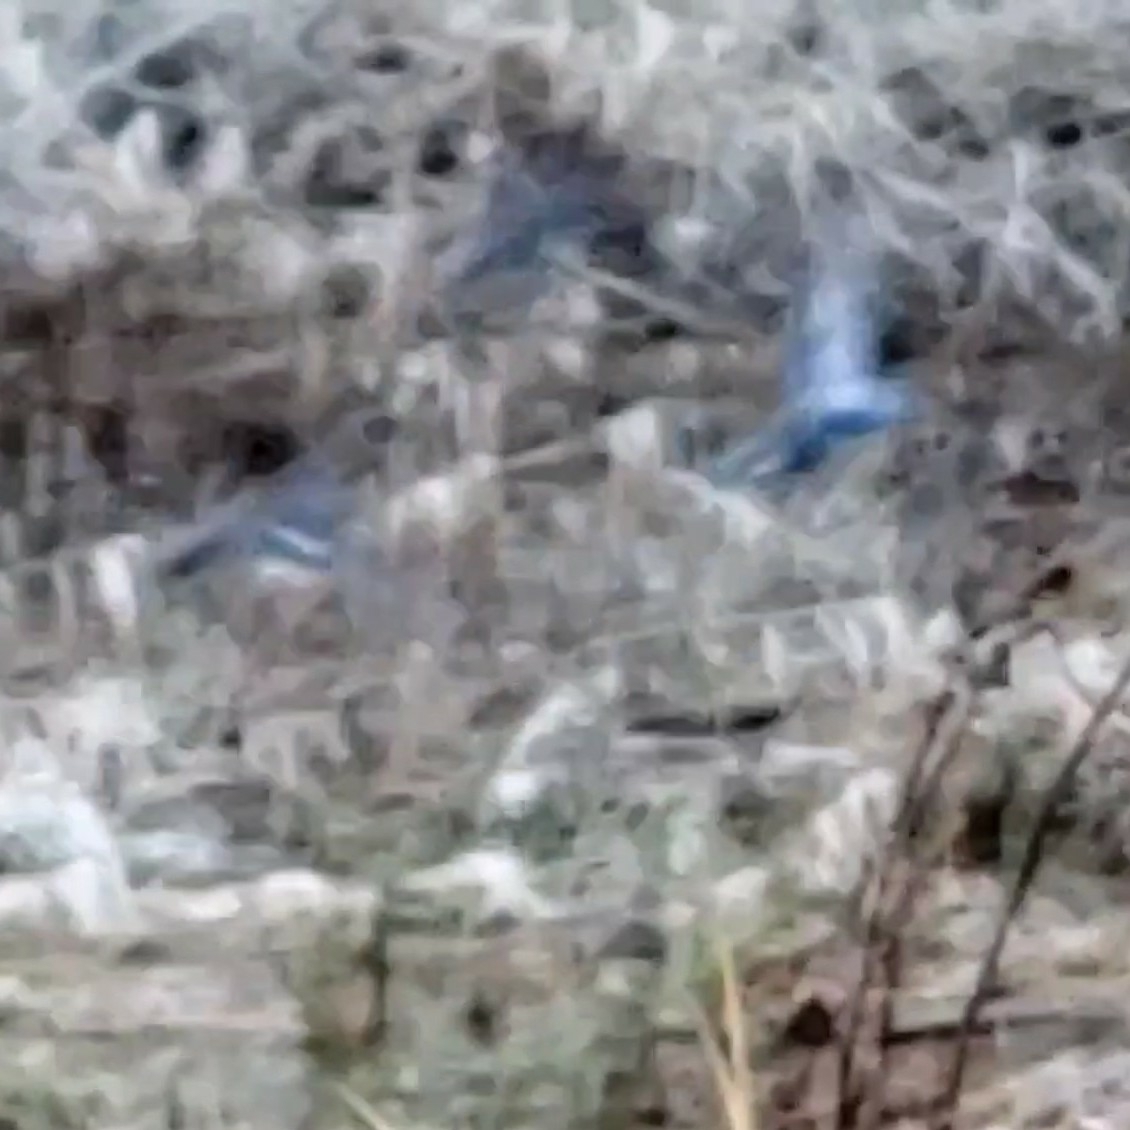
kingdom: Animalia
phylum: Chordata
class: Aves
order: Anseriformes
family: Anatidae
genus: Anas
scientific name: Anas crecca
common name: Eurasian teal
